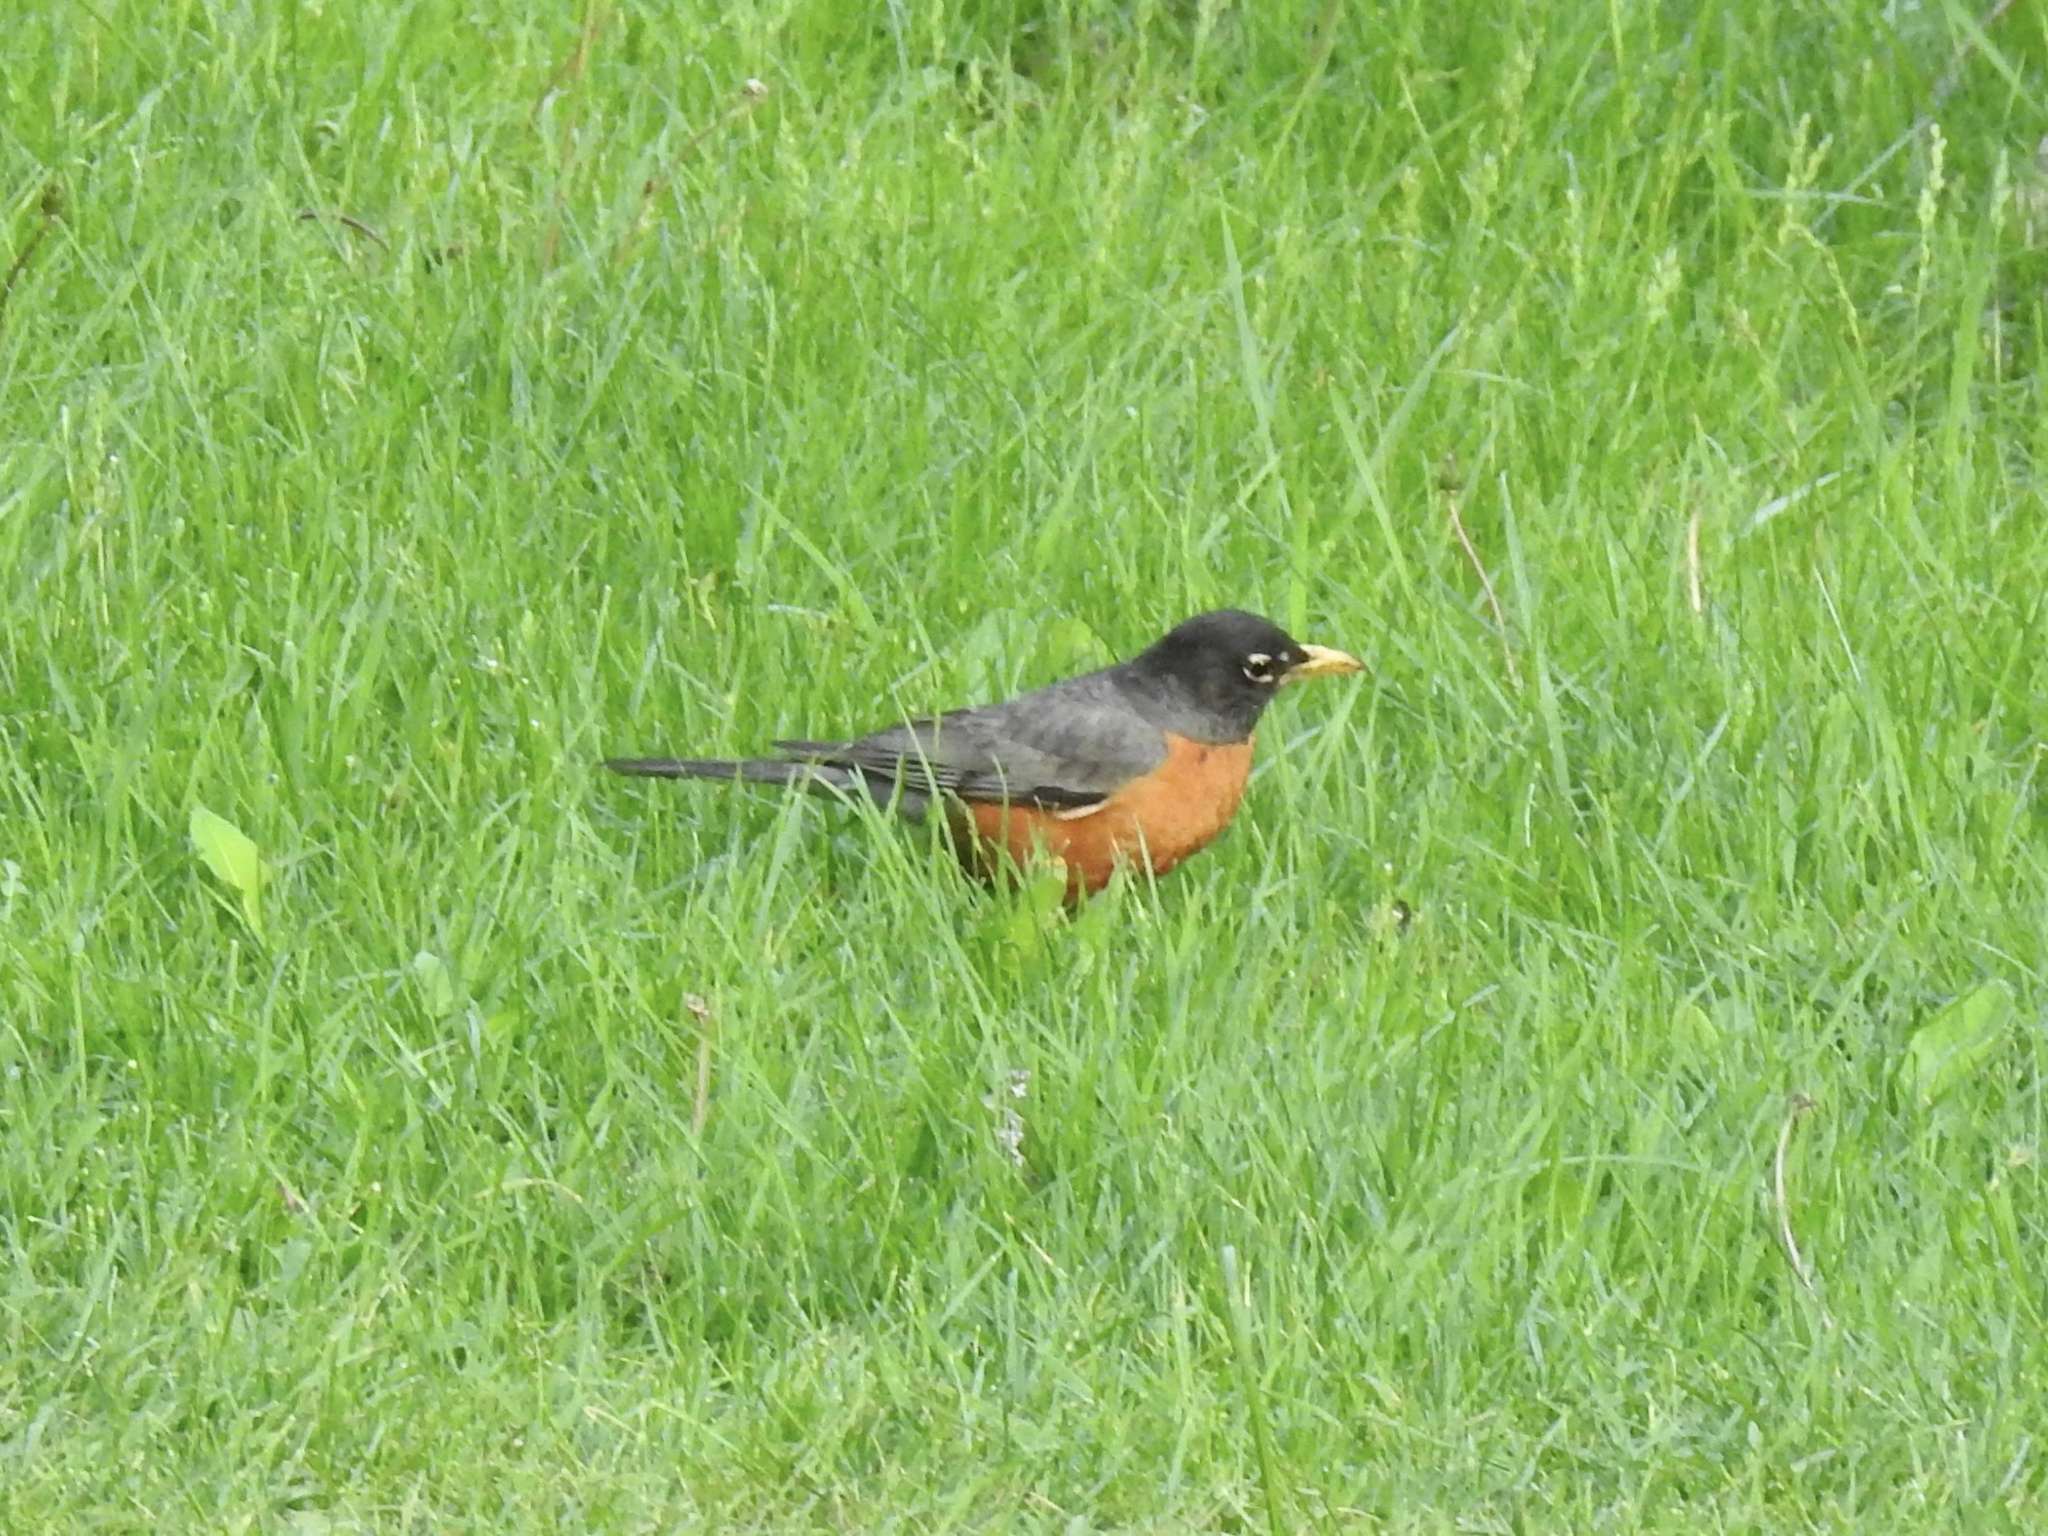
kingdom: Animalia
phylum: Chordata
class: Aves
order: Passeriformes
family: Turdidae
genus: Turdus
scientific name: Turdus migratorius
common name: American robin
